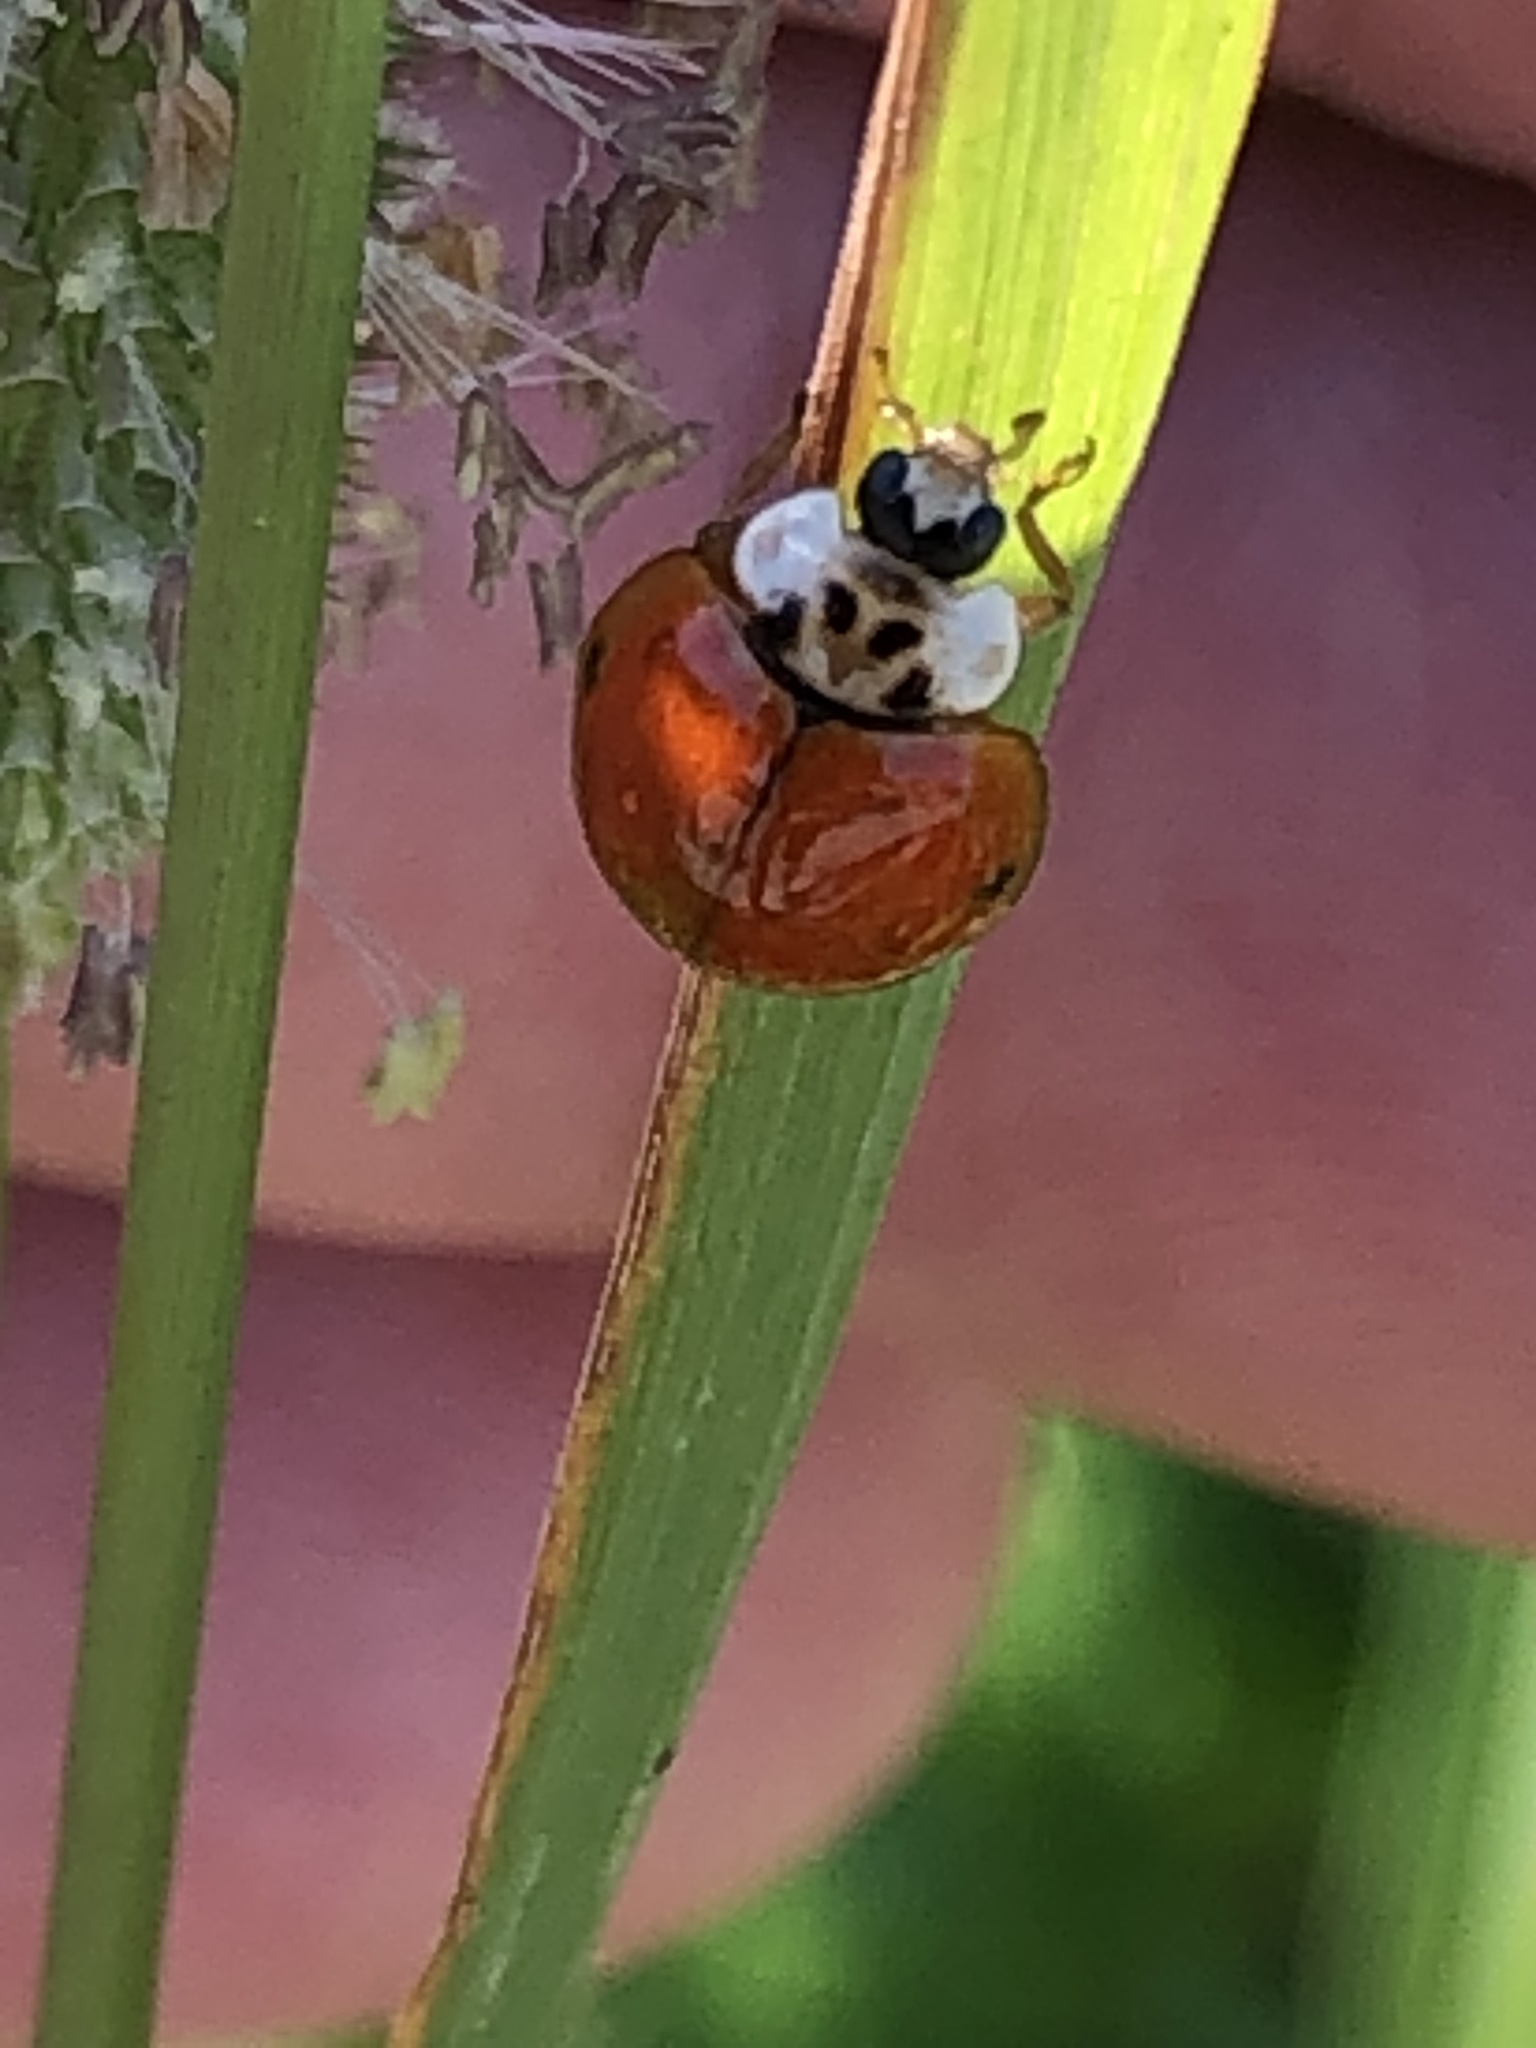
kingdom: Animalia
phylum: Arthropoda
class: Insecta
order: Coleoptera
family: Coccinellidae
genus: Harmonia
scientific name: Harmonia axyridis
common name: Harlequin ladybird
